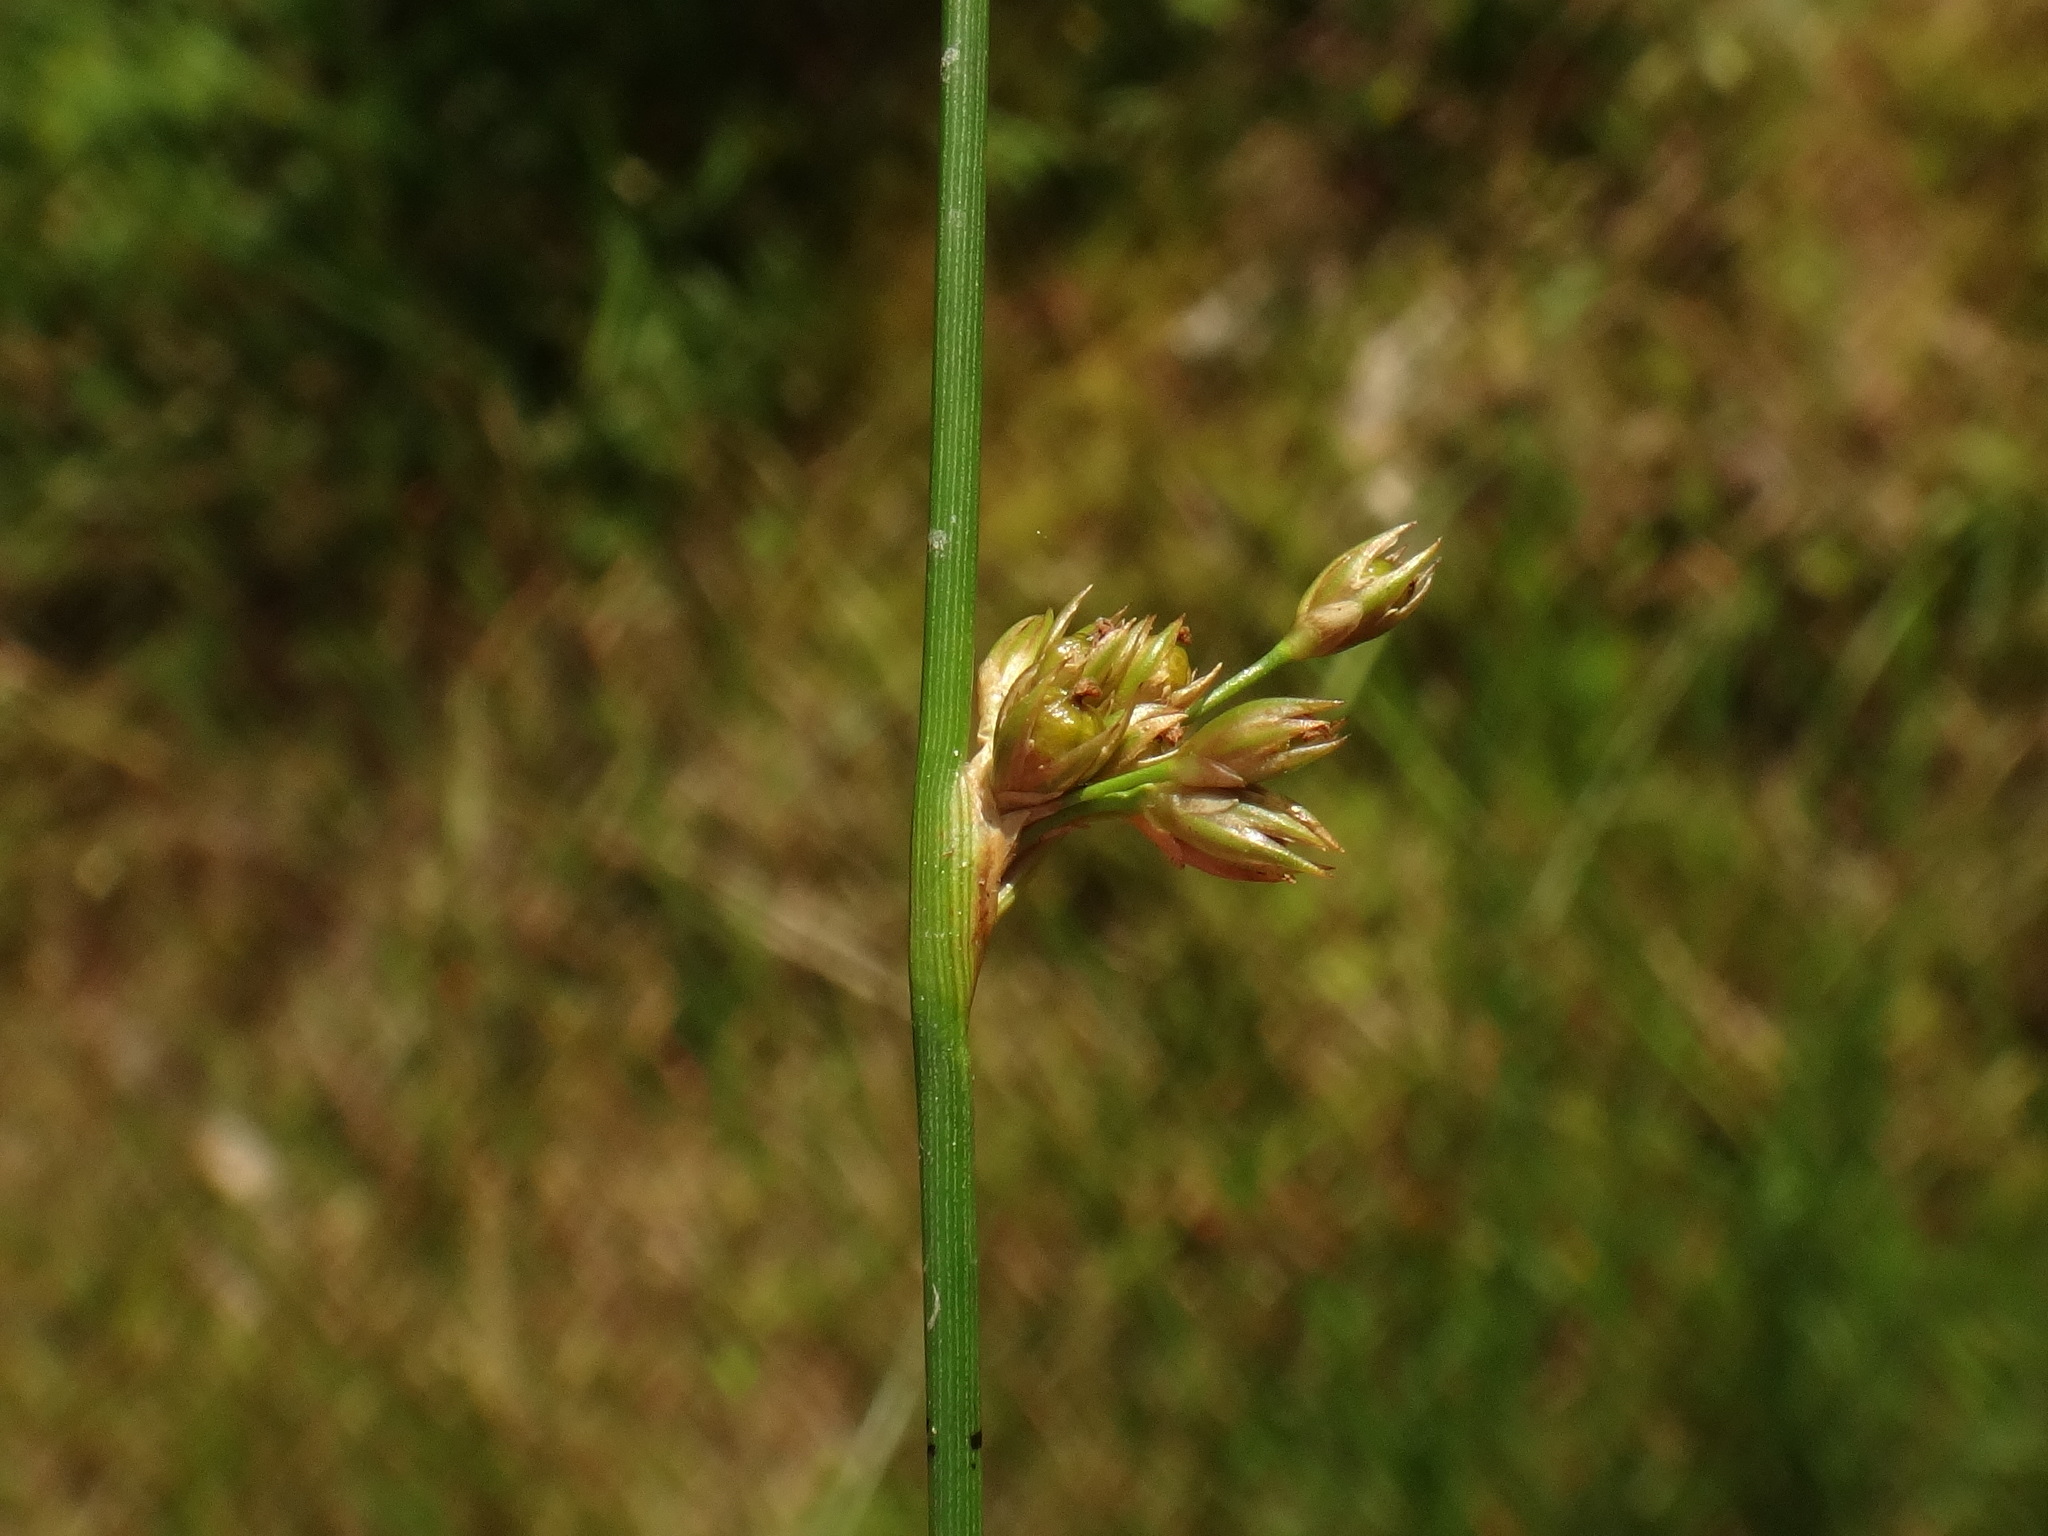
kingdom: Plantae
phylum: Tracheophyta
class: Liliopsida
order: Poales
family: Juncaceae
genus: Juncus
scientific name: Juncus filiformis
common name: Thread rush
